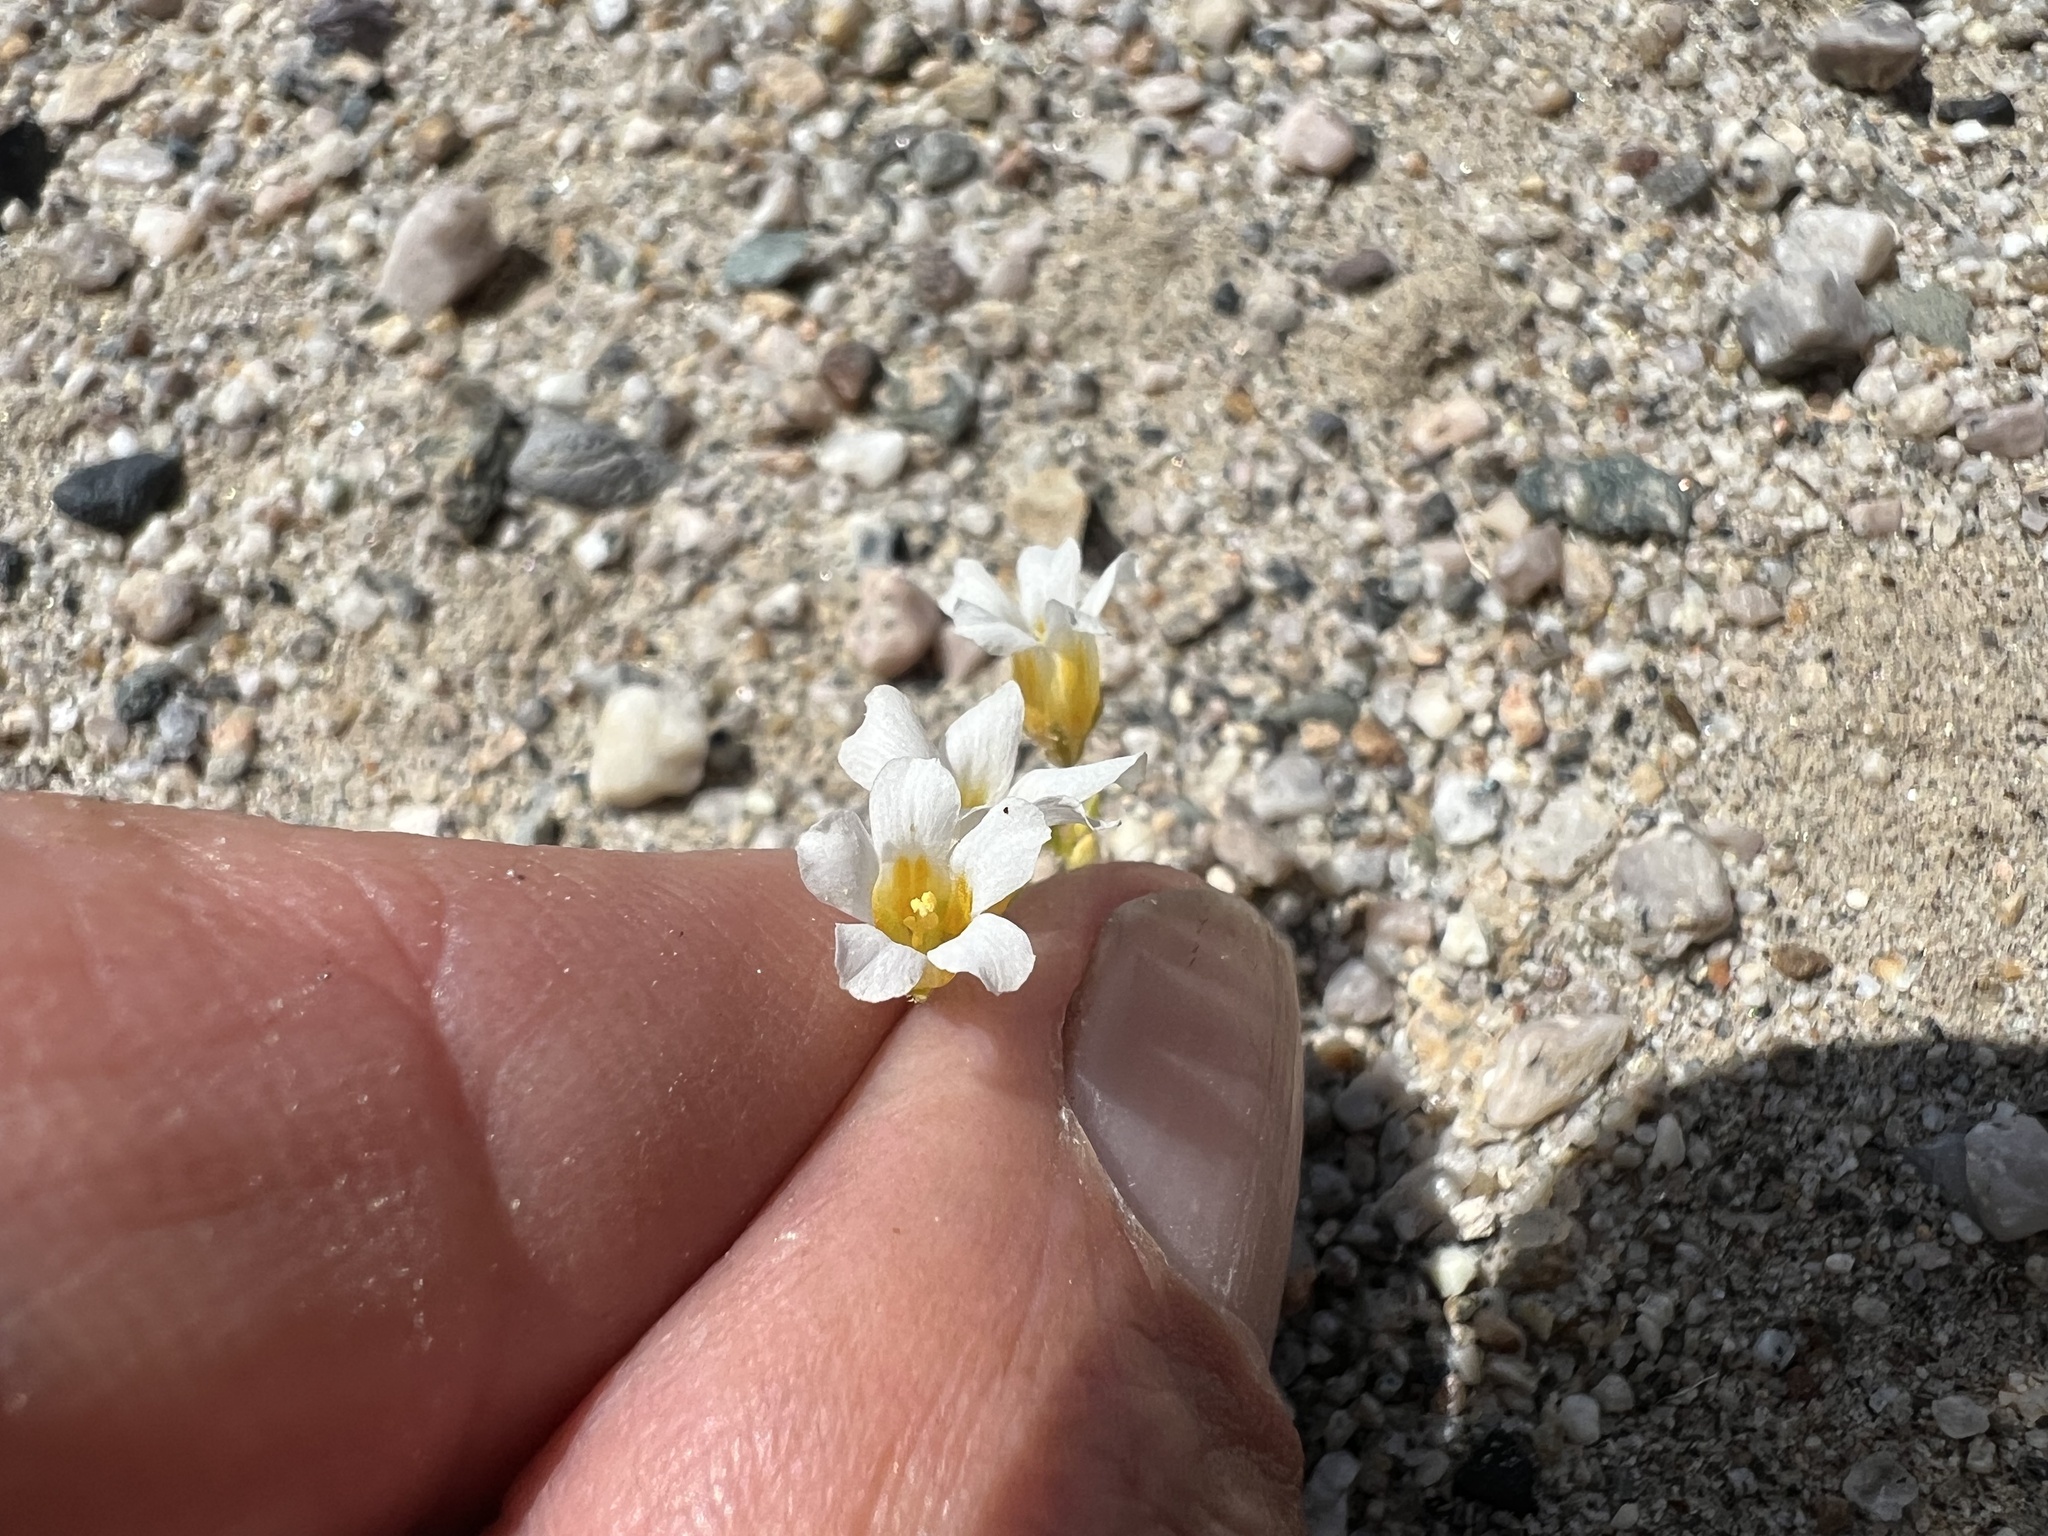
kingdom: Plantae
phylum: Tracheophyta
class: Magnoliopsida
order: Ericales
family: Polemoniaceae
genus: Linanthus
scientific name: Linanthus campanulatus
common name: Bellshape gilia
